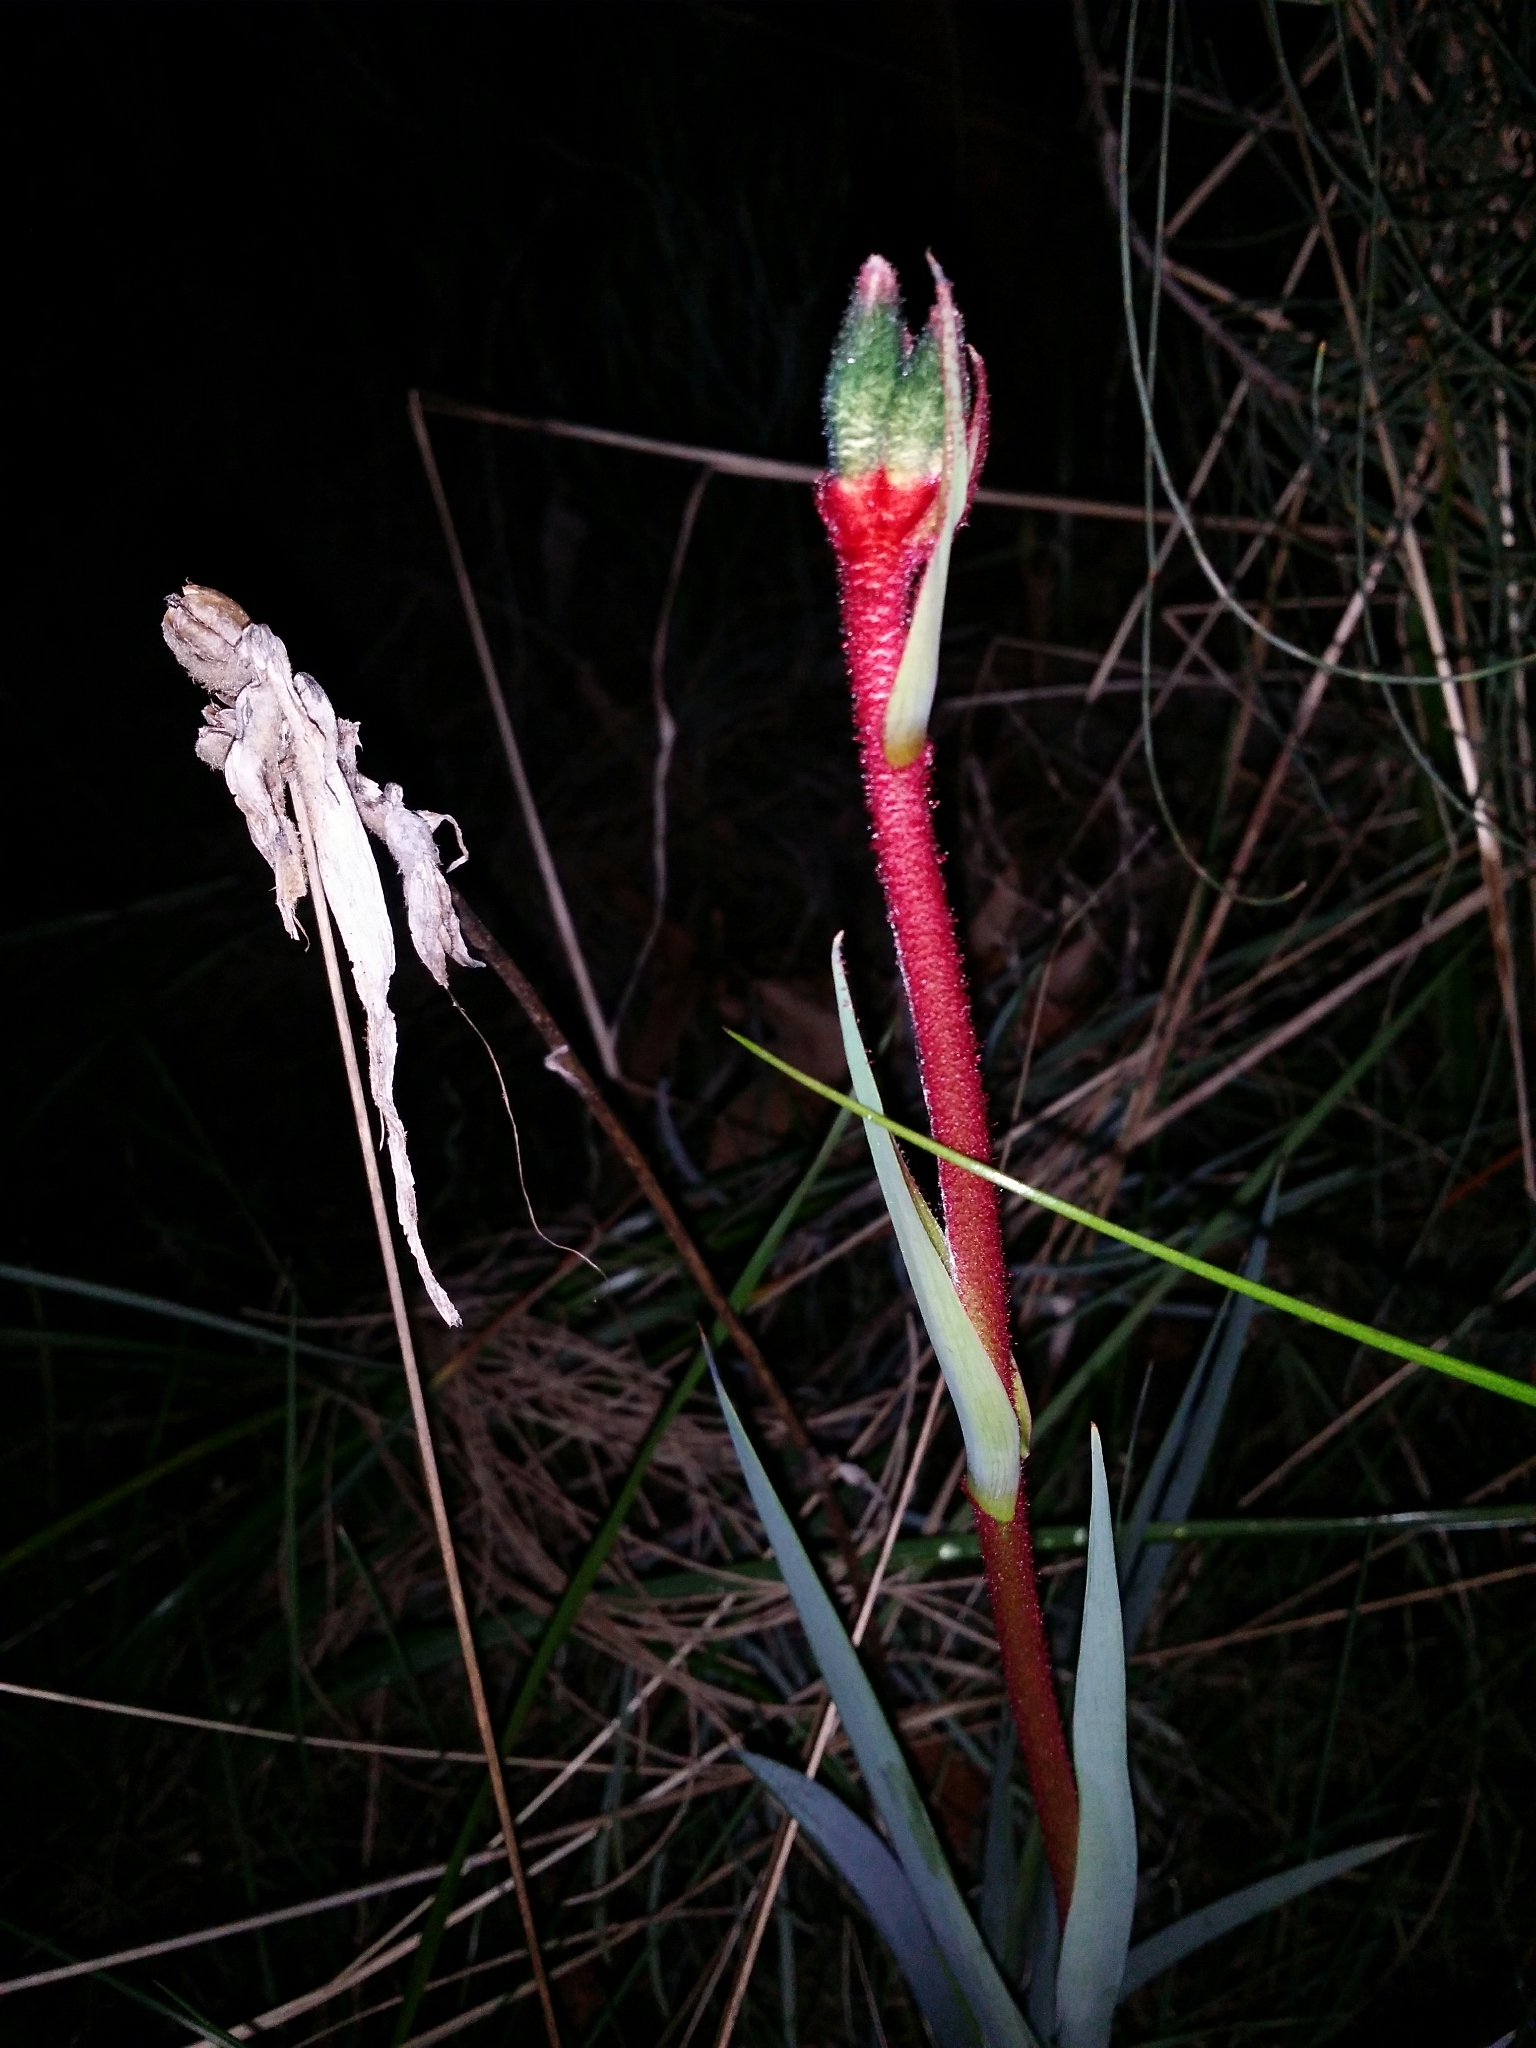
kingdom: Plantae
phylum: Tracheophyta
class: Liliopsida
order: Commelinales
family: Haemodoraceae
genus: Anigozanthos
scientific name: Anigozanthos manglesii
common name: Mangles's kangaroo-paw
